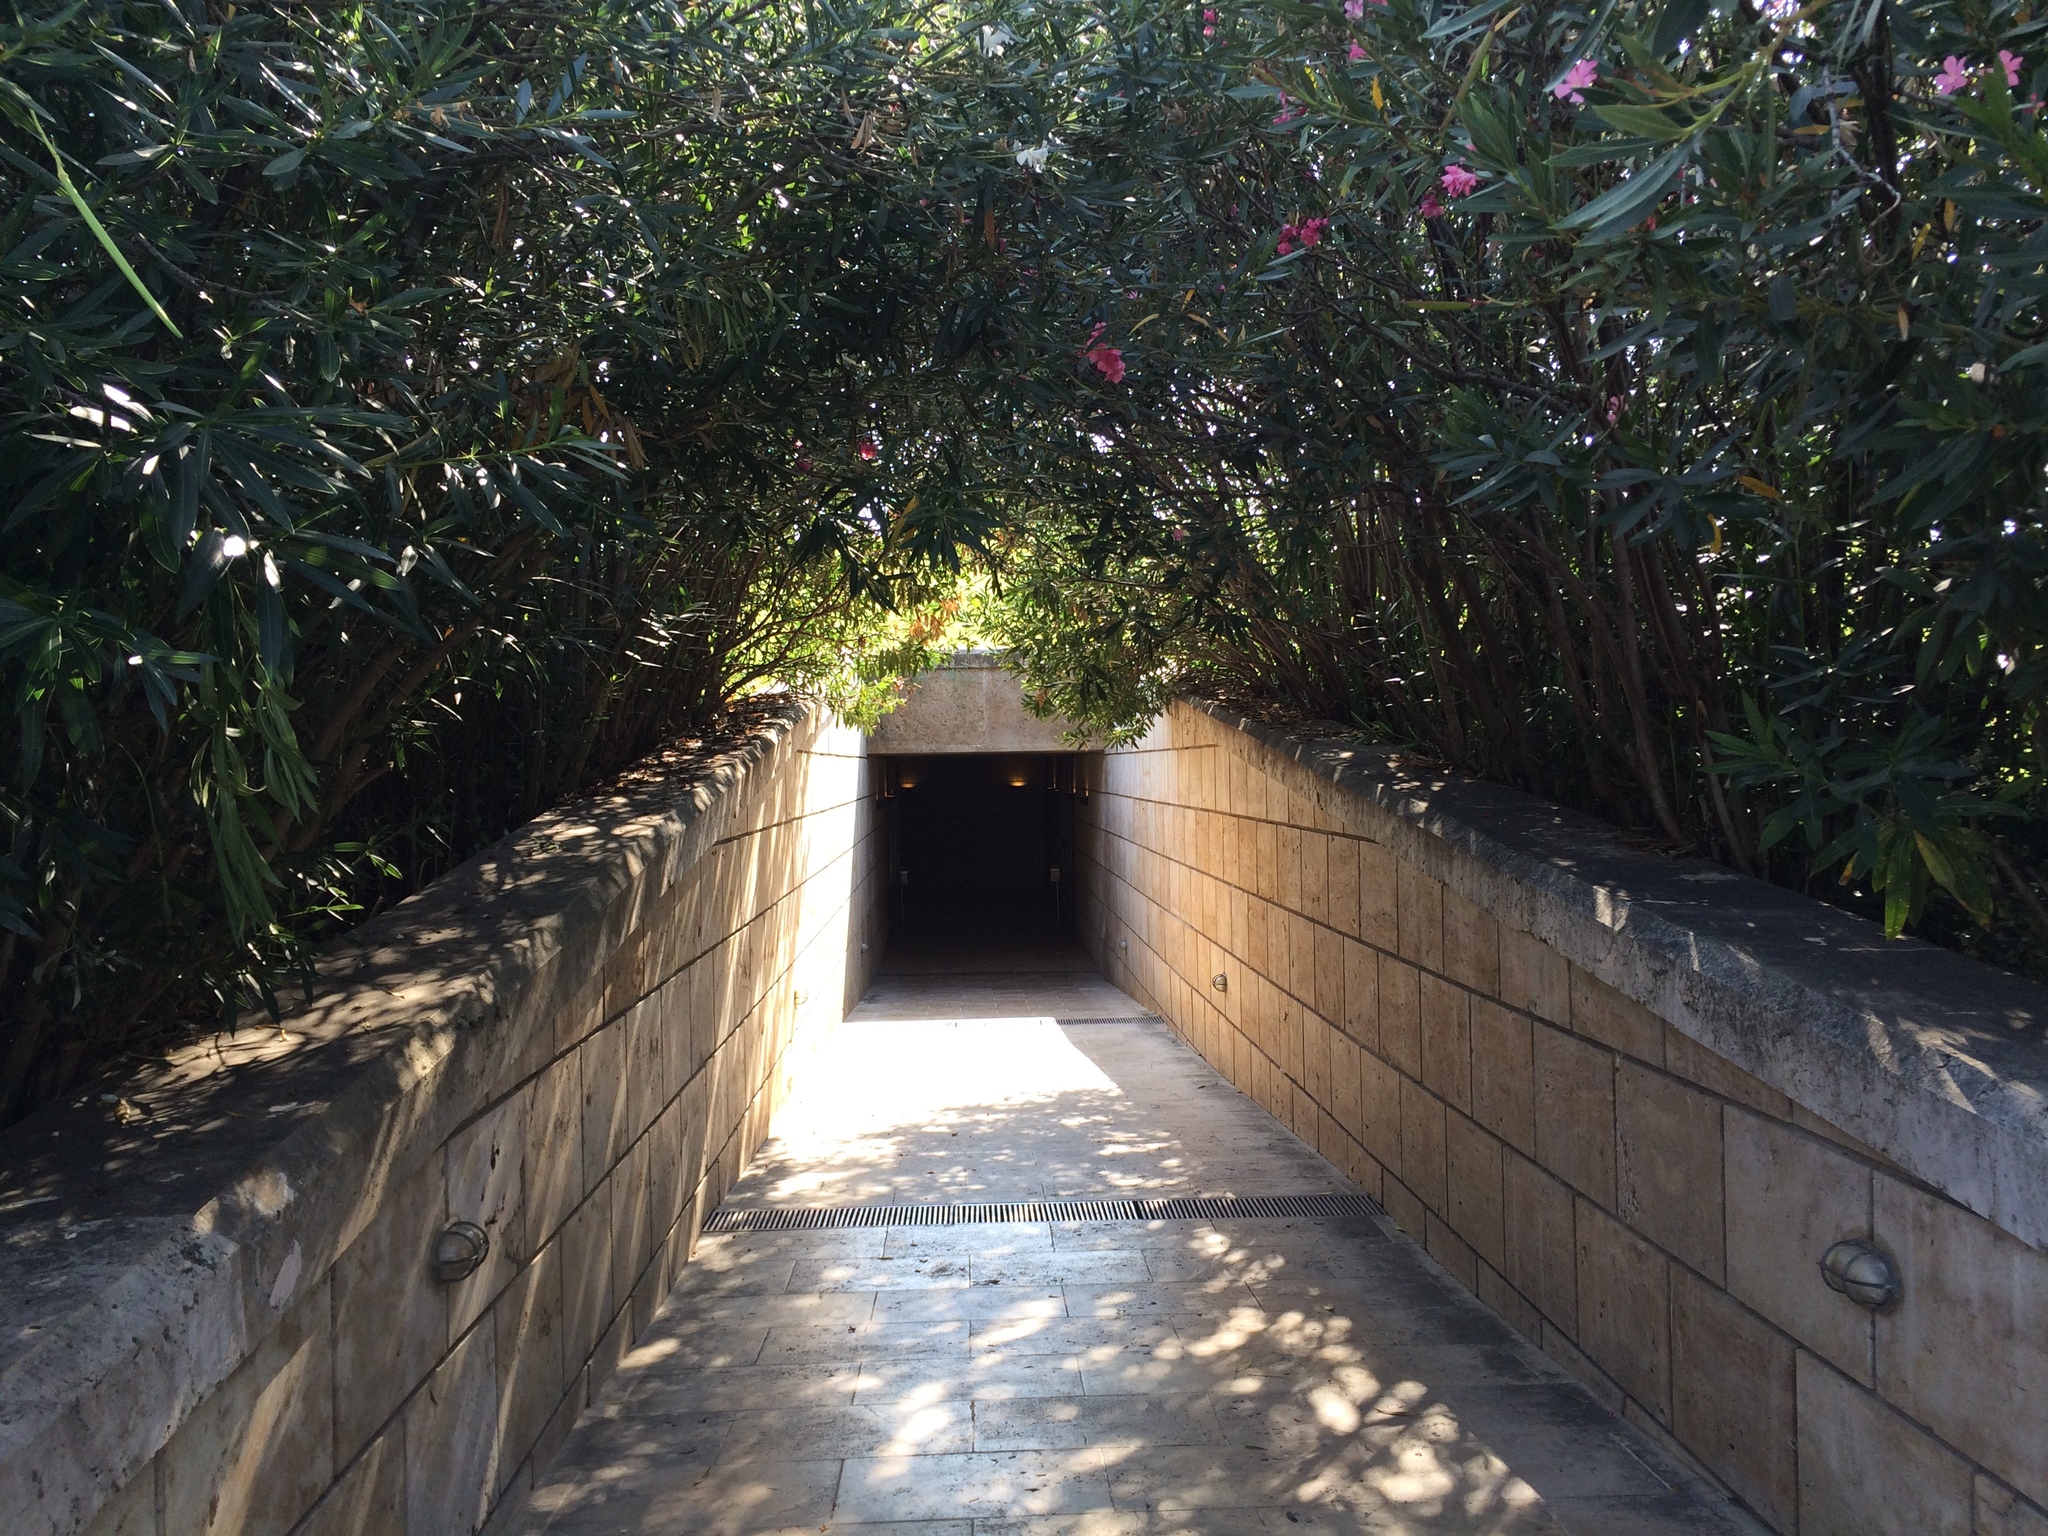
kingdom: Plantae
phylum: Tracheophyta
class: Magnoliopsida
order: Gentianales
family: Apocynaceae
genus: Nerium
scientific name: Nerium oleander
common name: Oleander
